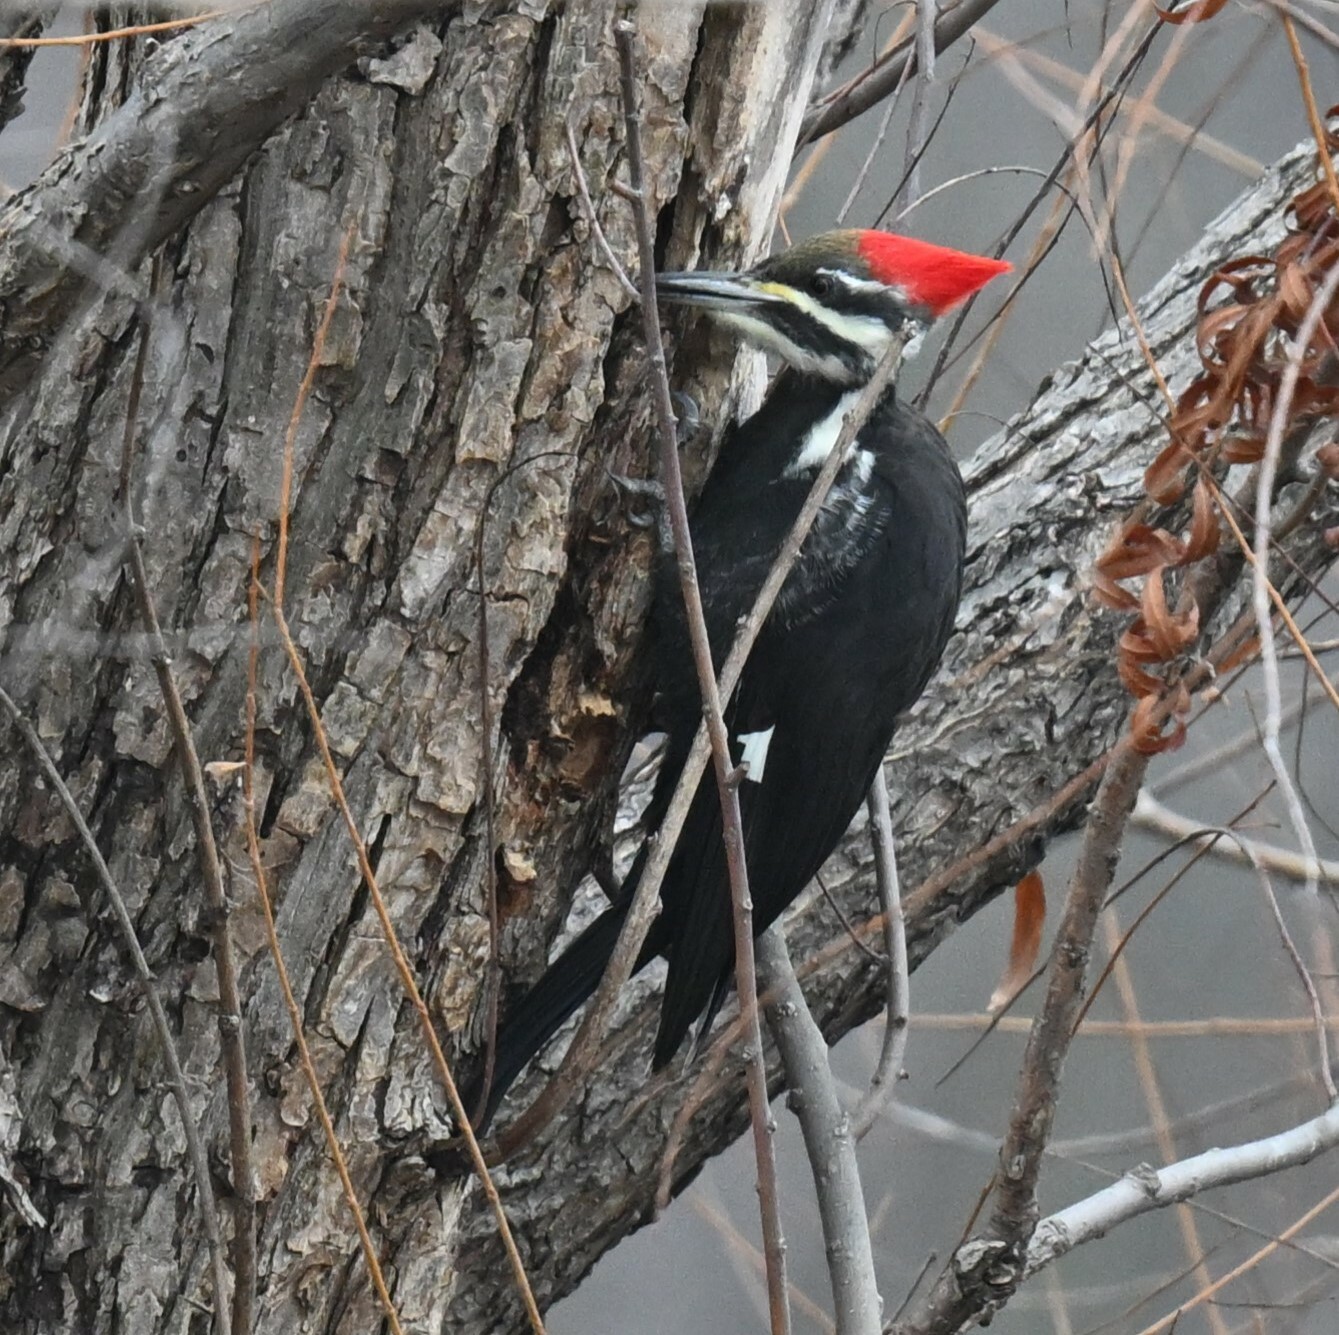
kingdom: Animalia
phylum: Chordata
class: Aves
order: Piciformes
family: Picidae
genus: Dryocopus
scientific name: Dryocopus pileatus
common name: Pileated woodpecker
